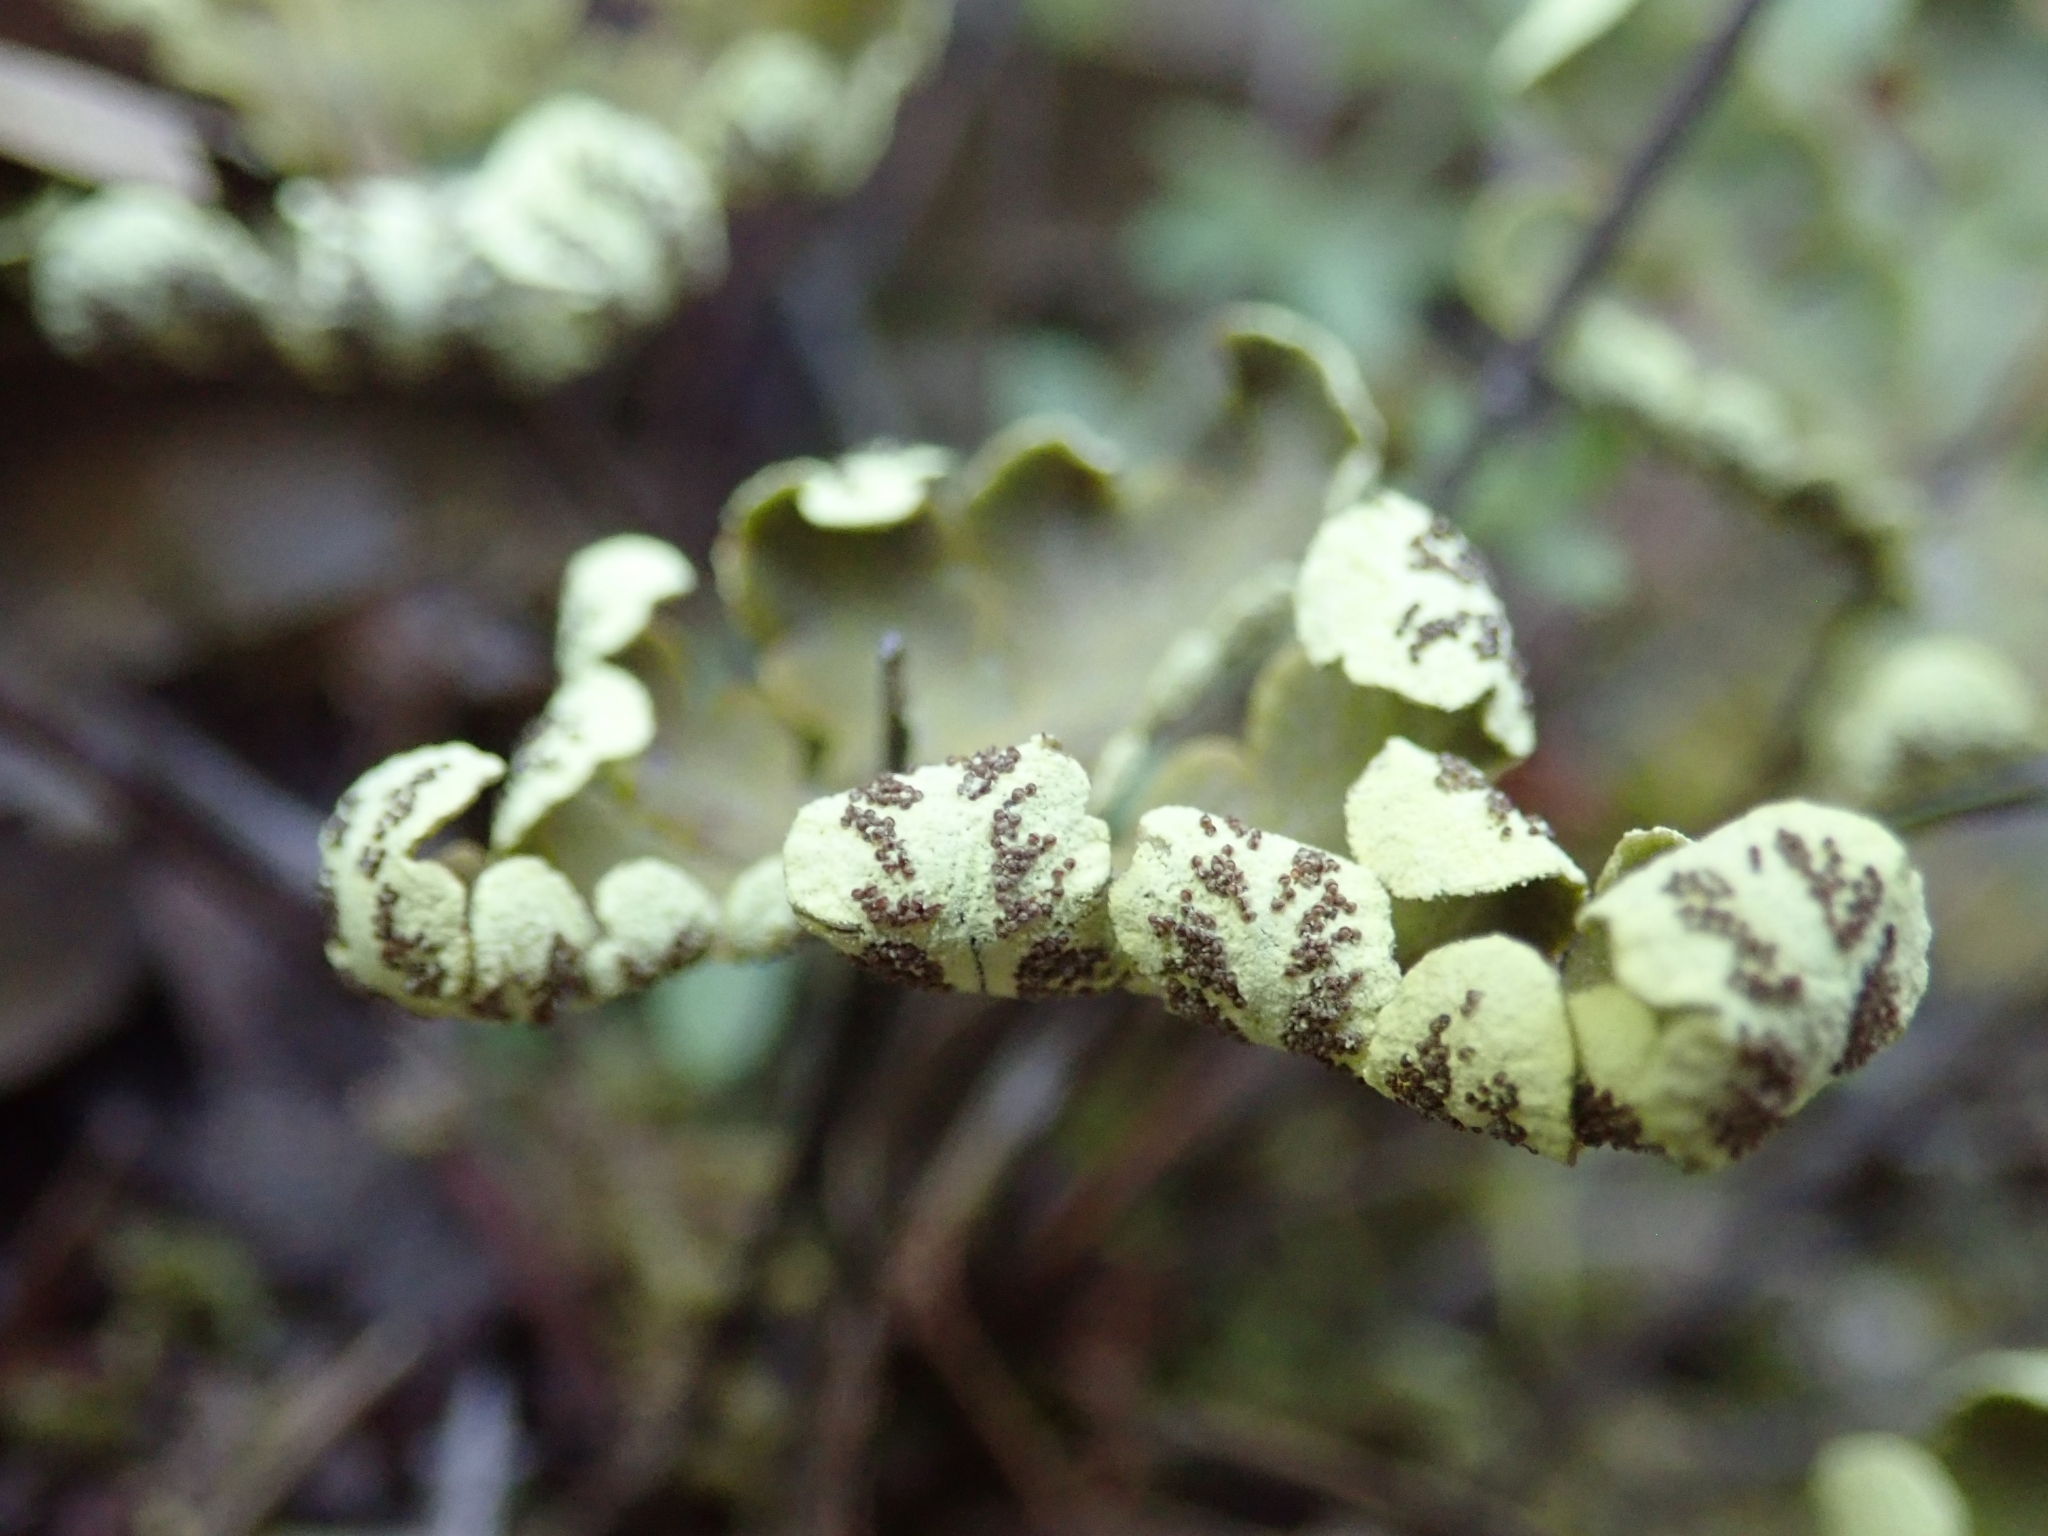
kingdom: Plantae
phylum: Tracheophyta
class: Polypodiopsida
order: Polypodiales
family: Pteridaceae
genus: Pentagramma
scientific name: Pentagramma triangularis
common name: Gold fern
